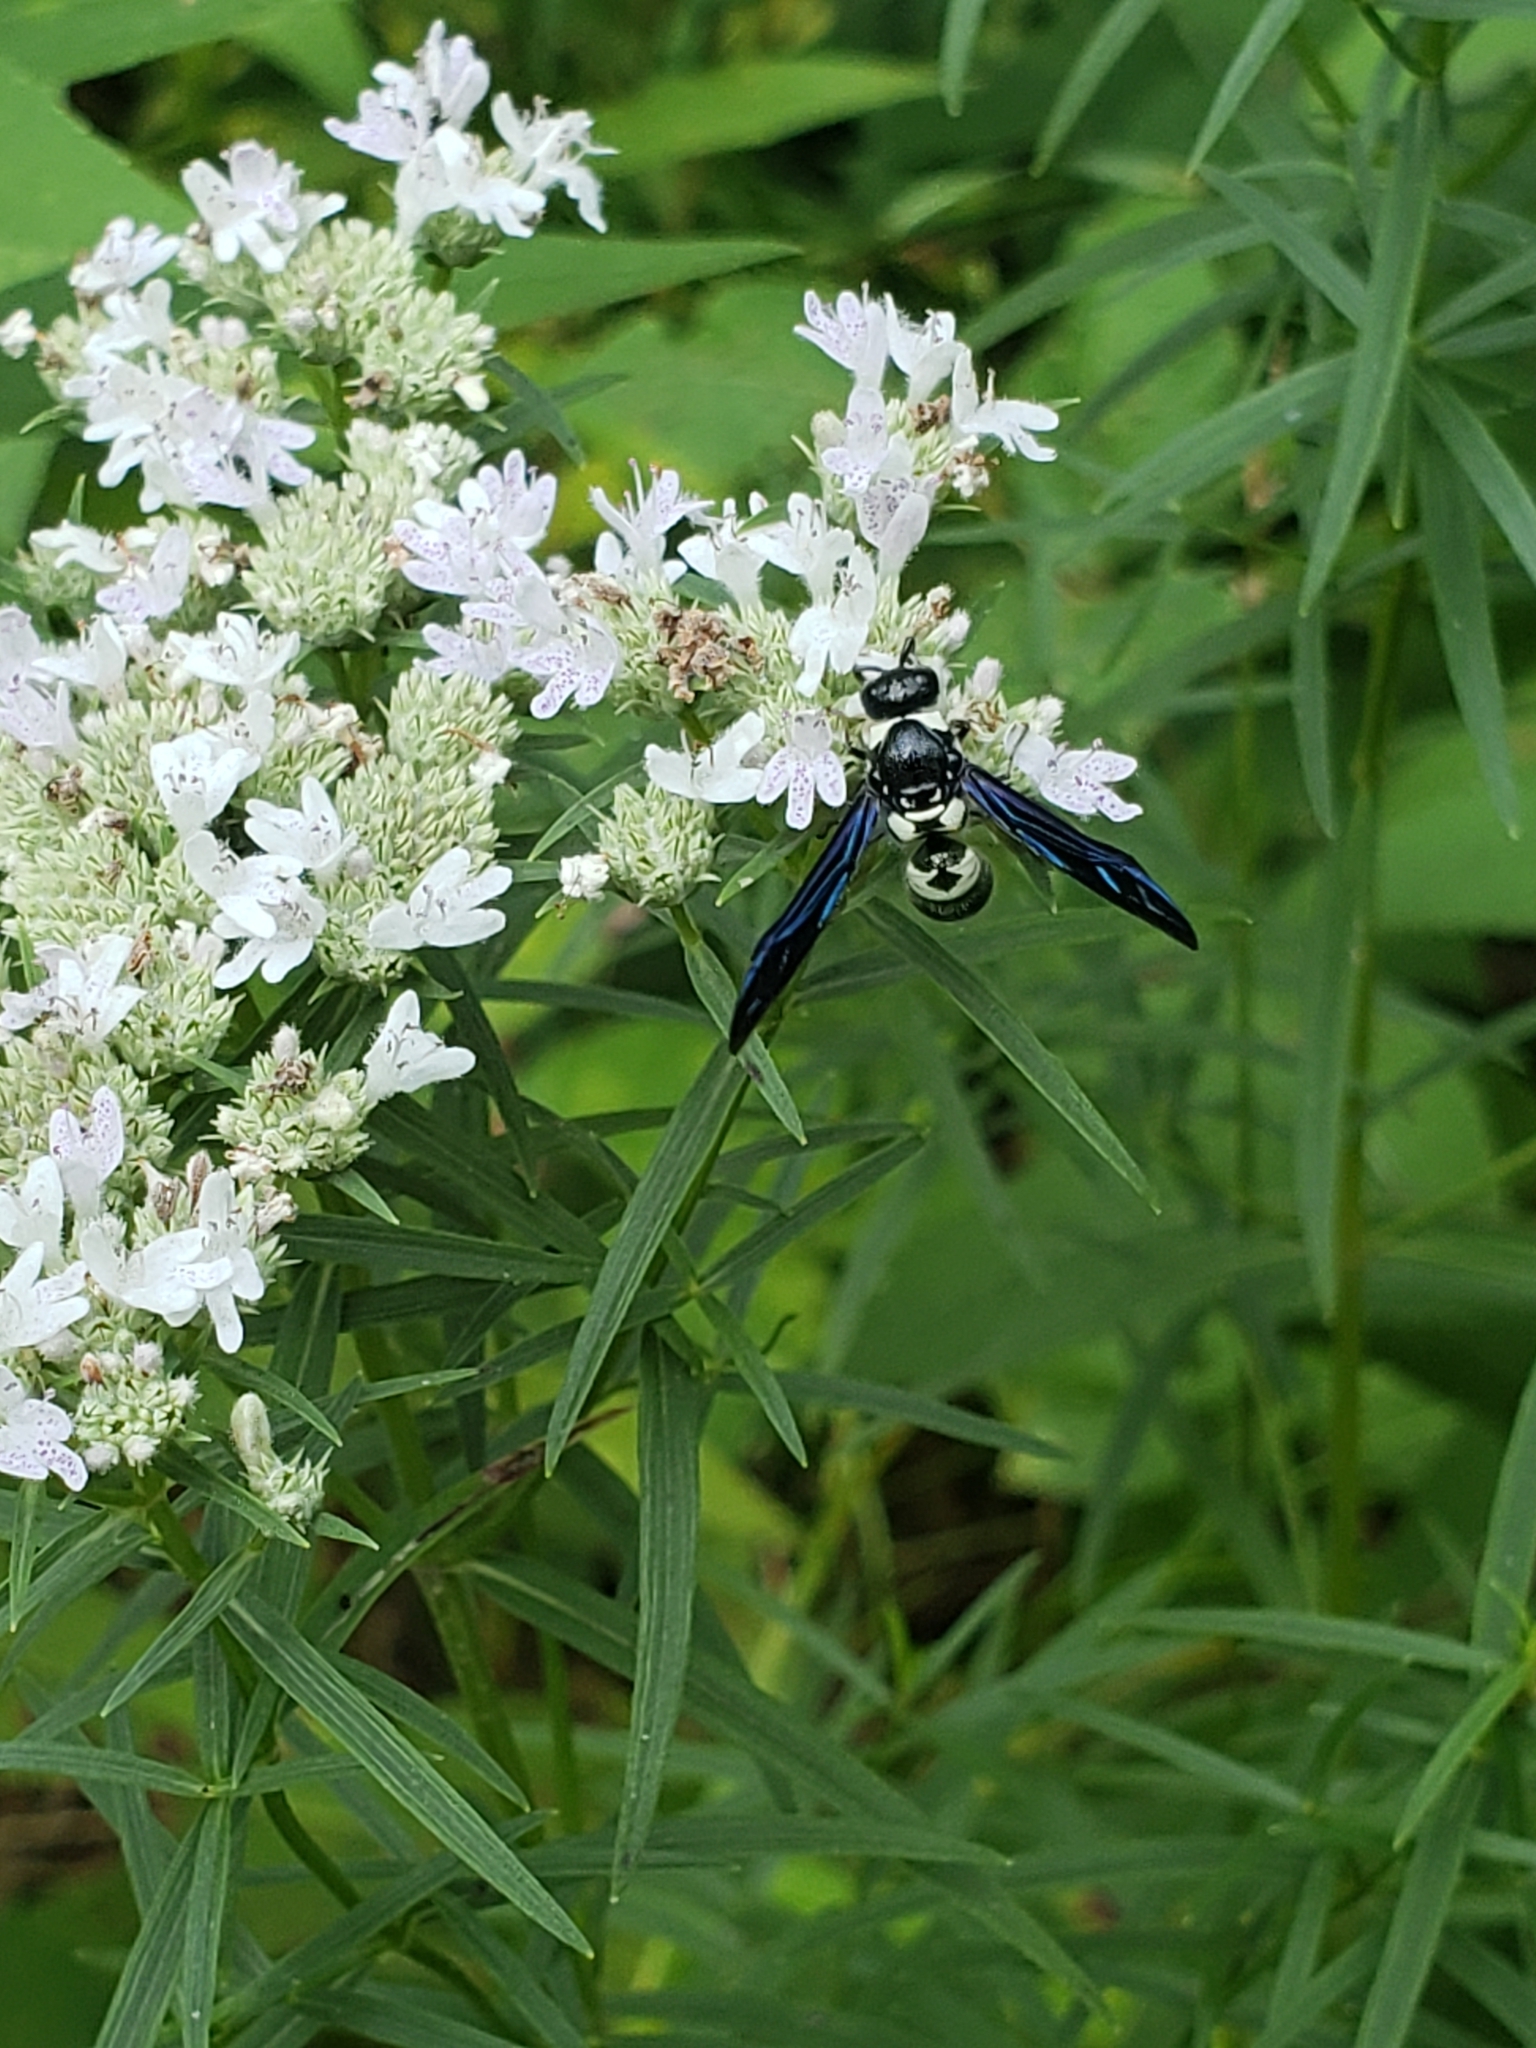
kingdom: Animalia
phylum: Arthropoda
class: Insecta
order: Hymenoptera
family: Eumenidae
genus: Pseudodynerus
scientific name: Pseudodynerus quadrisectus
